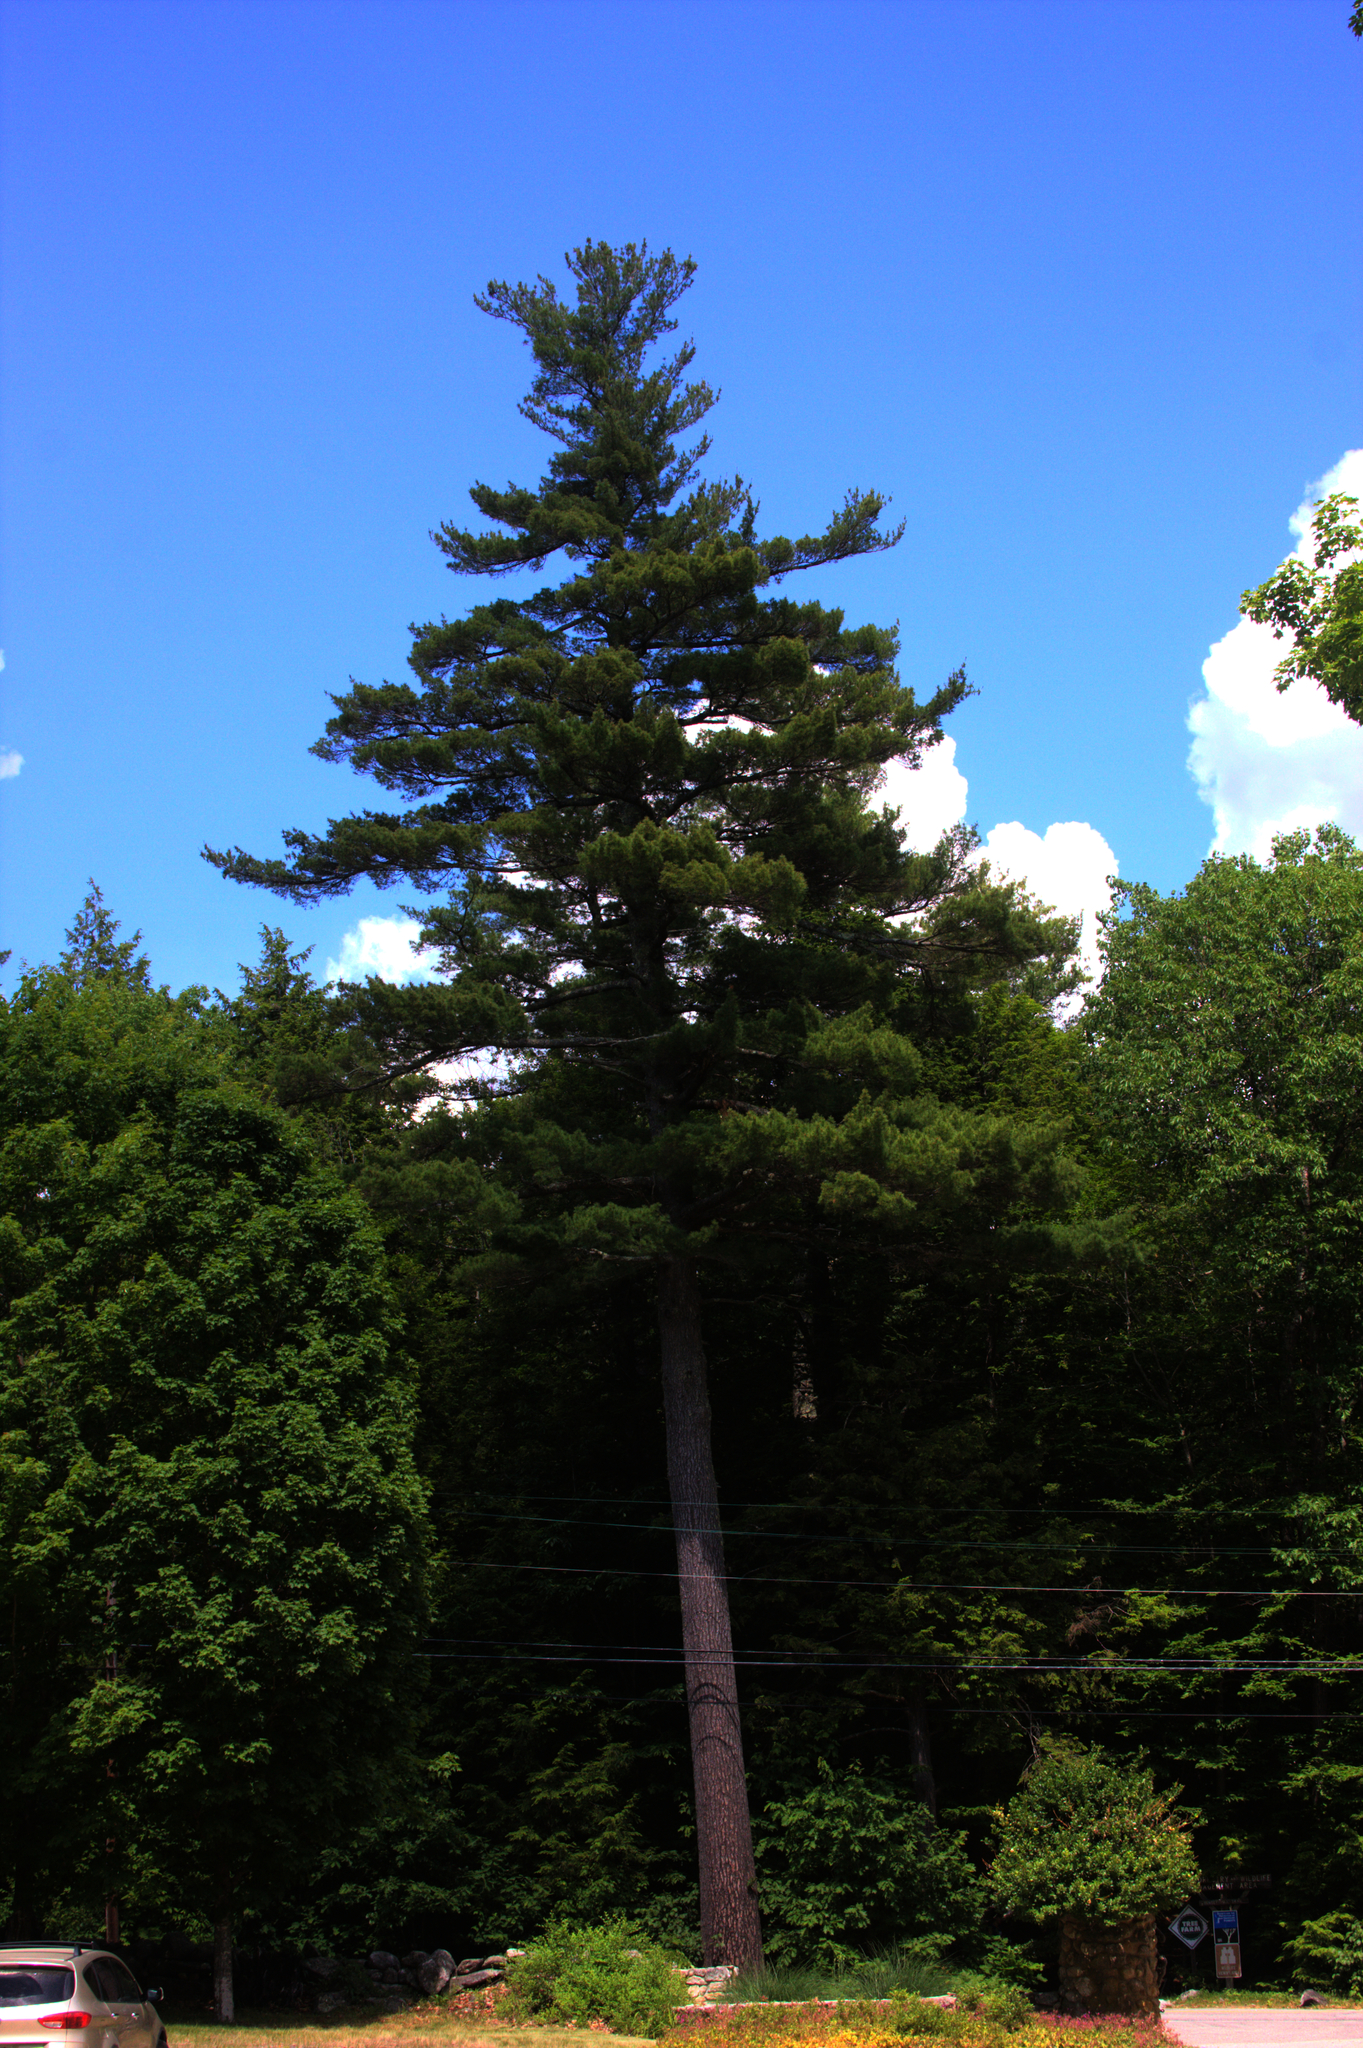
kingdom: Plantae
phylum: Tracheophyta
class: Pinopsida
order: Pinales
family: Pinaceae
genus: Pinus
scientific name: Pinus strobus
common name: Weymouth pine
